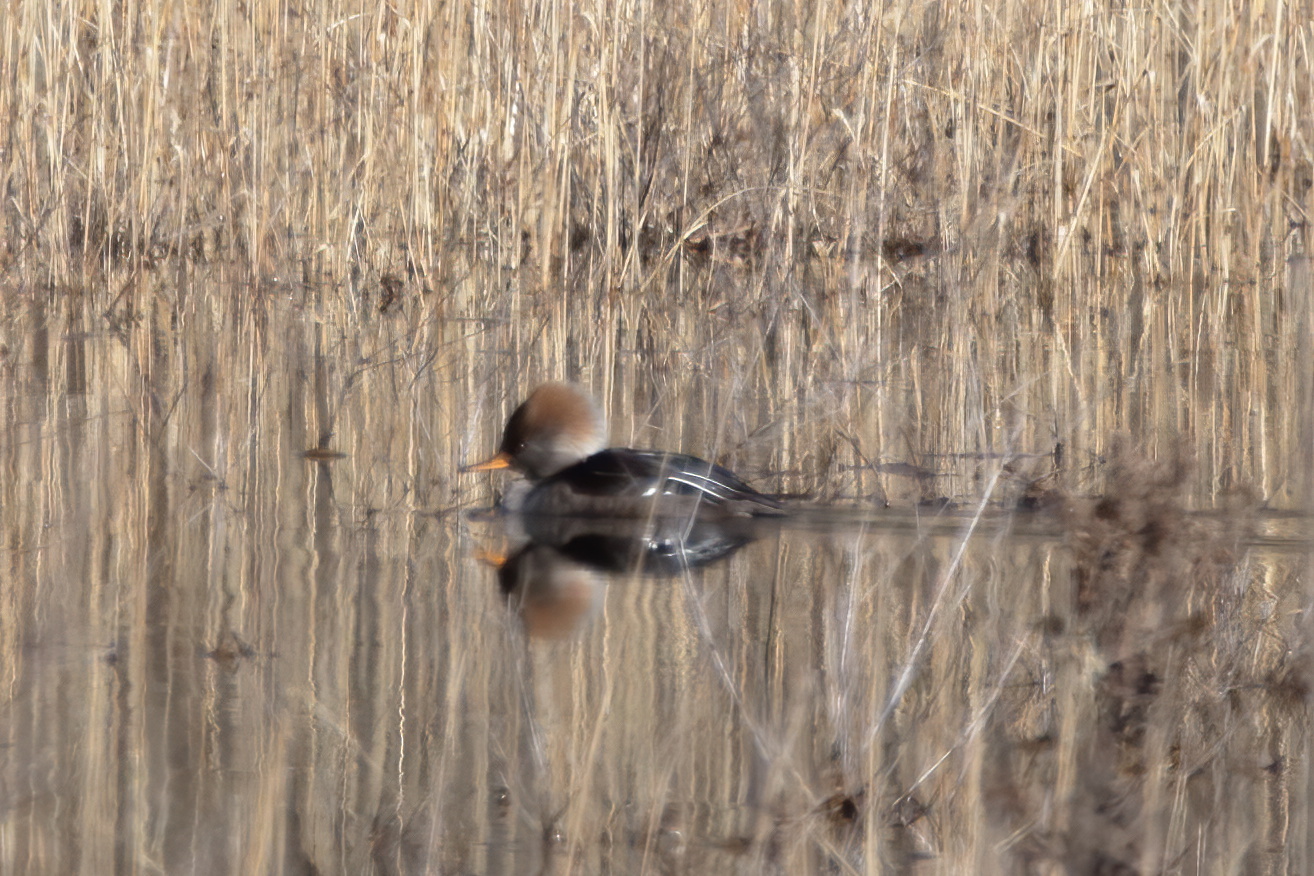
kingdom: Animalia
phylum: Chordata
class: Aves
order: Anseriformes
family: Anatidae
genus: Lophodytes
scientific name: Lophodytes cucullatus
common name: Hooded merganser
